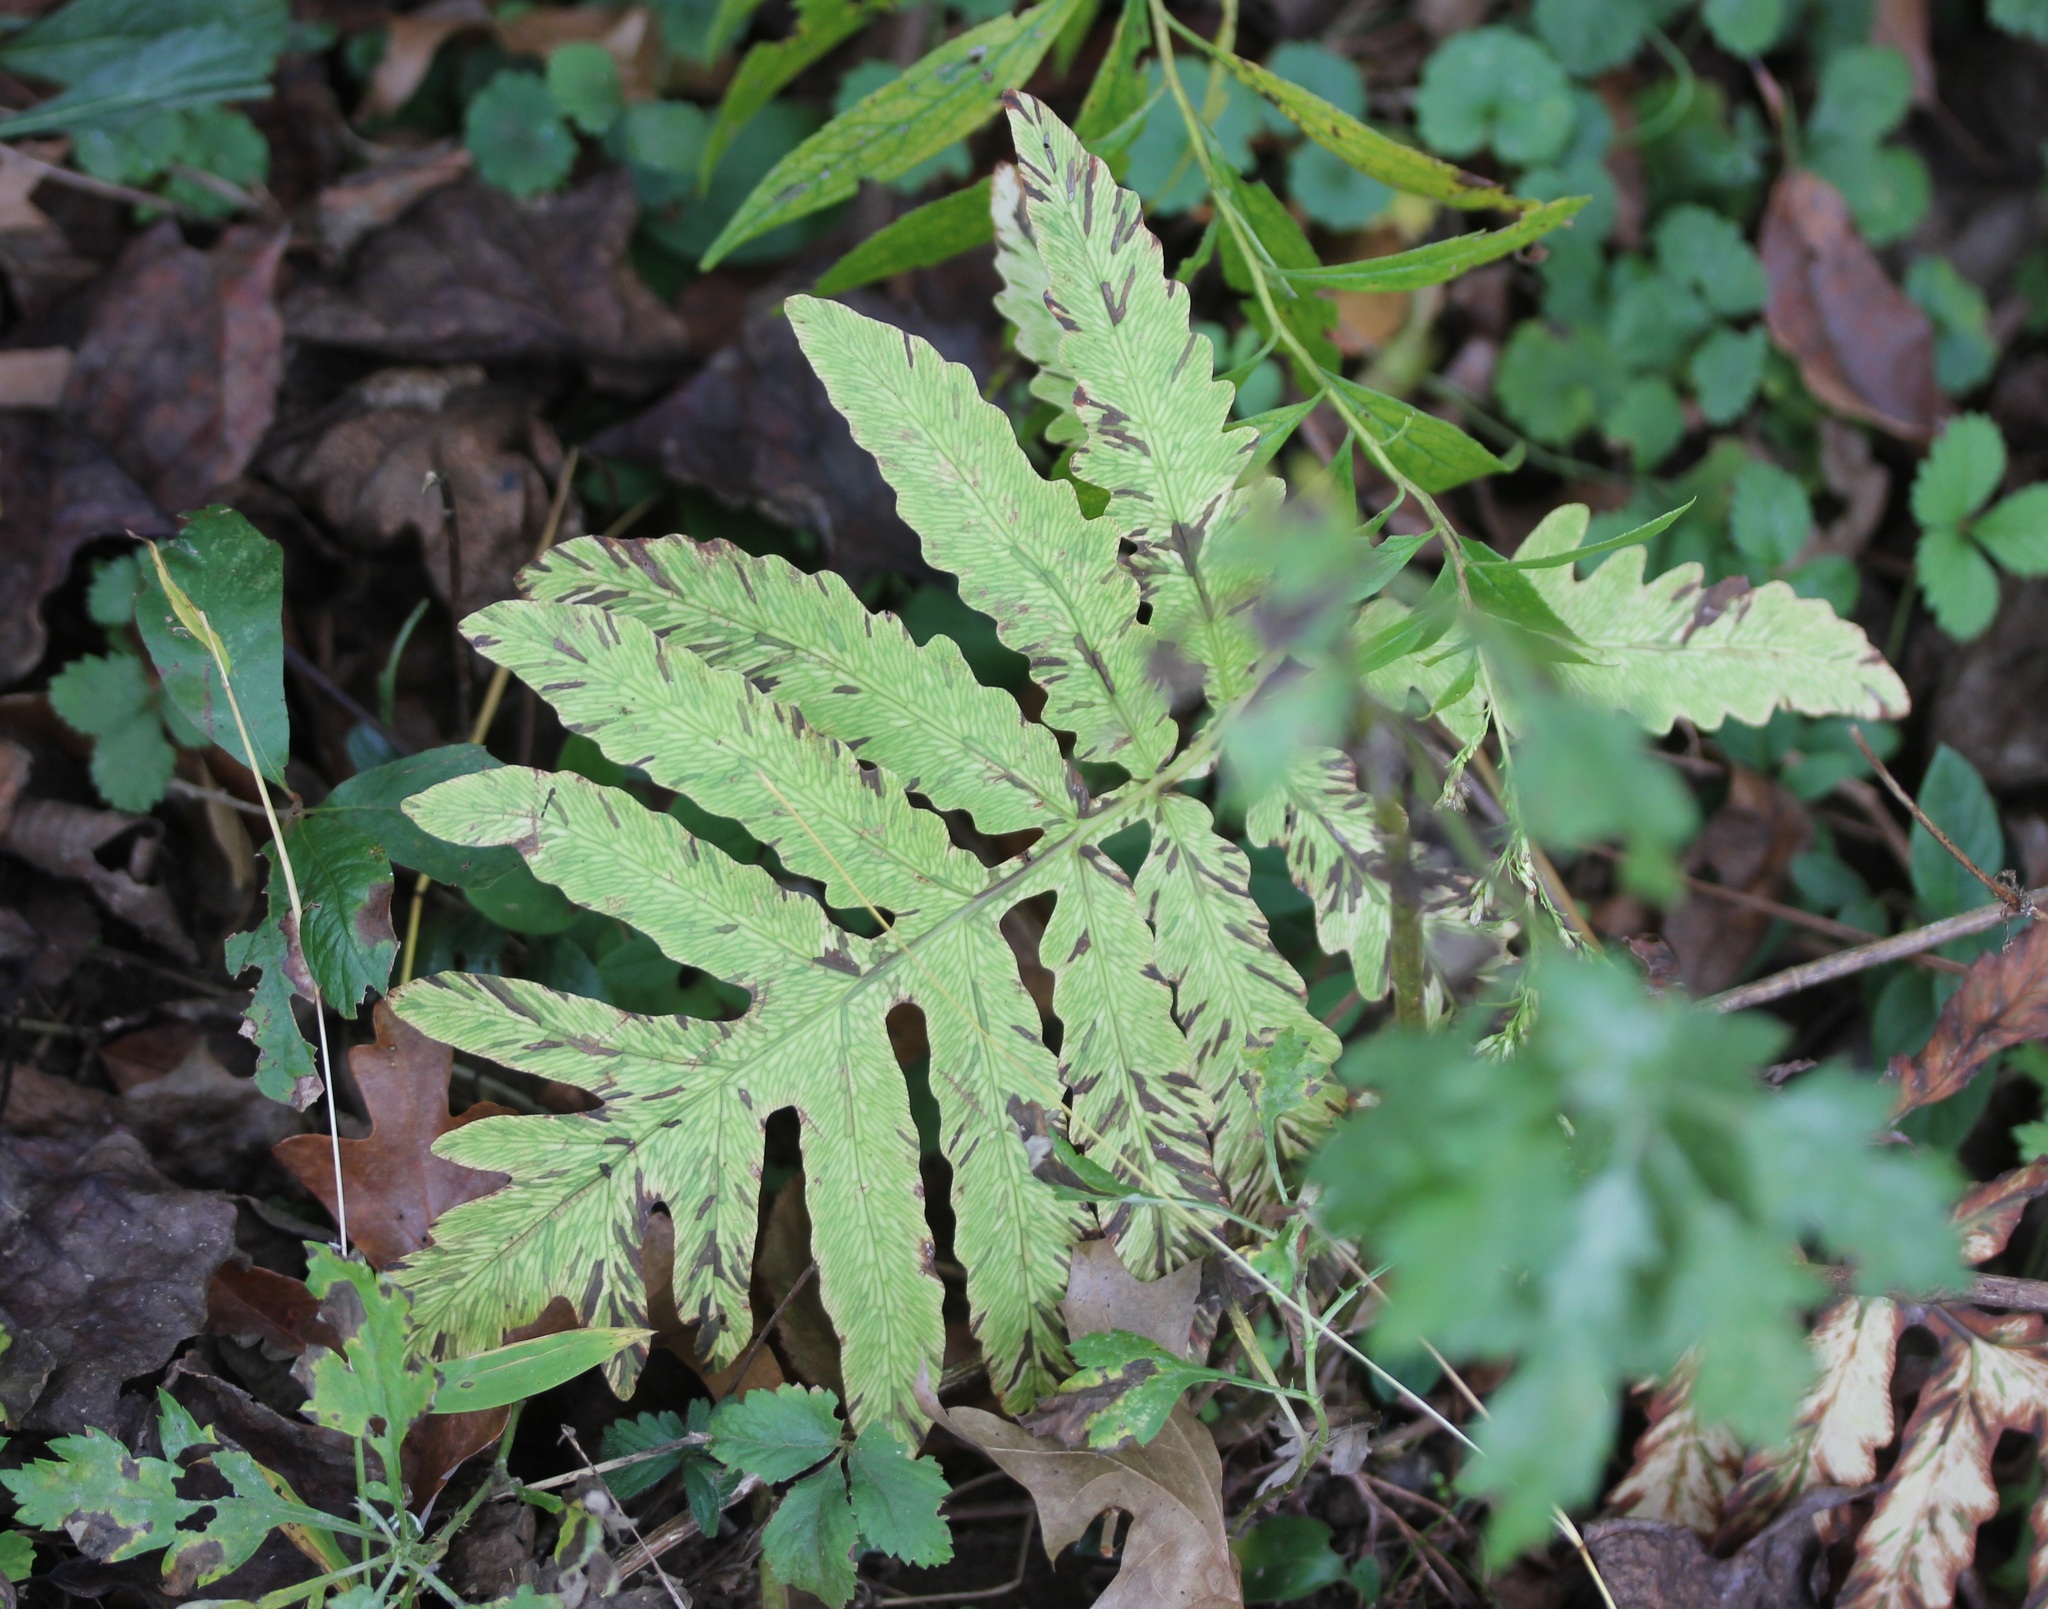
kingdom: Plantae
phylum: Tracheophyta
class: Polypodiopsida
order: Polypodiales
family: Onocleaceae
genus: Onoclea
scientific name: Onoclea sensibilis
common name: Sensitive fern
